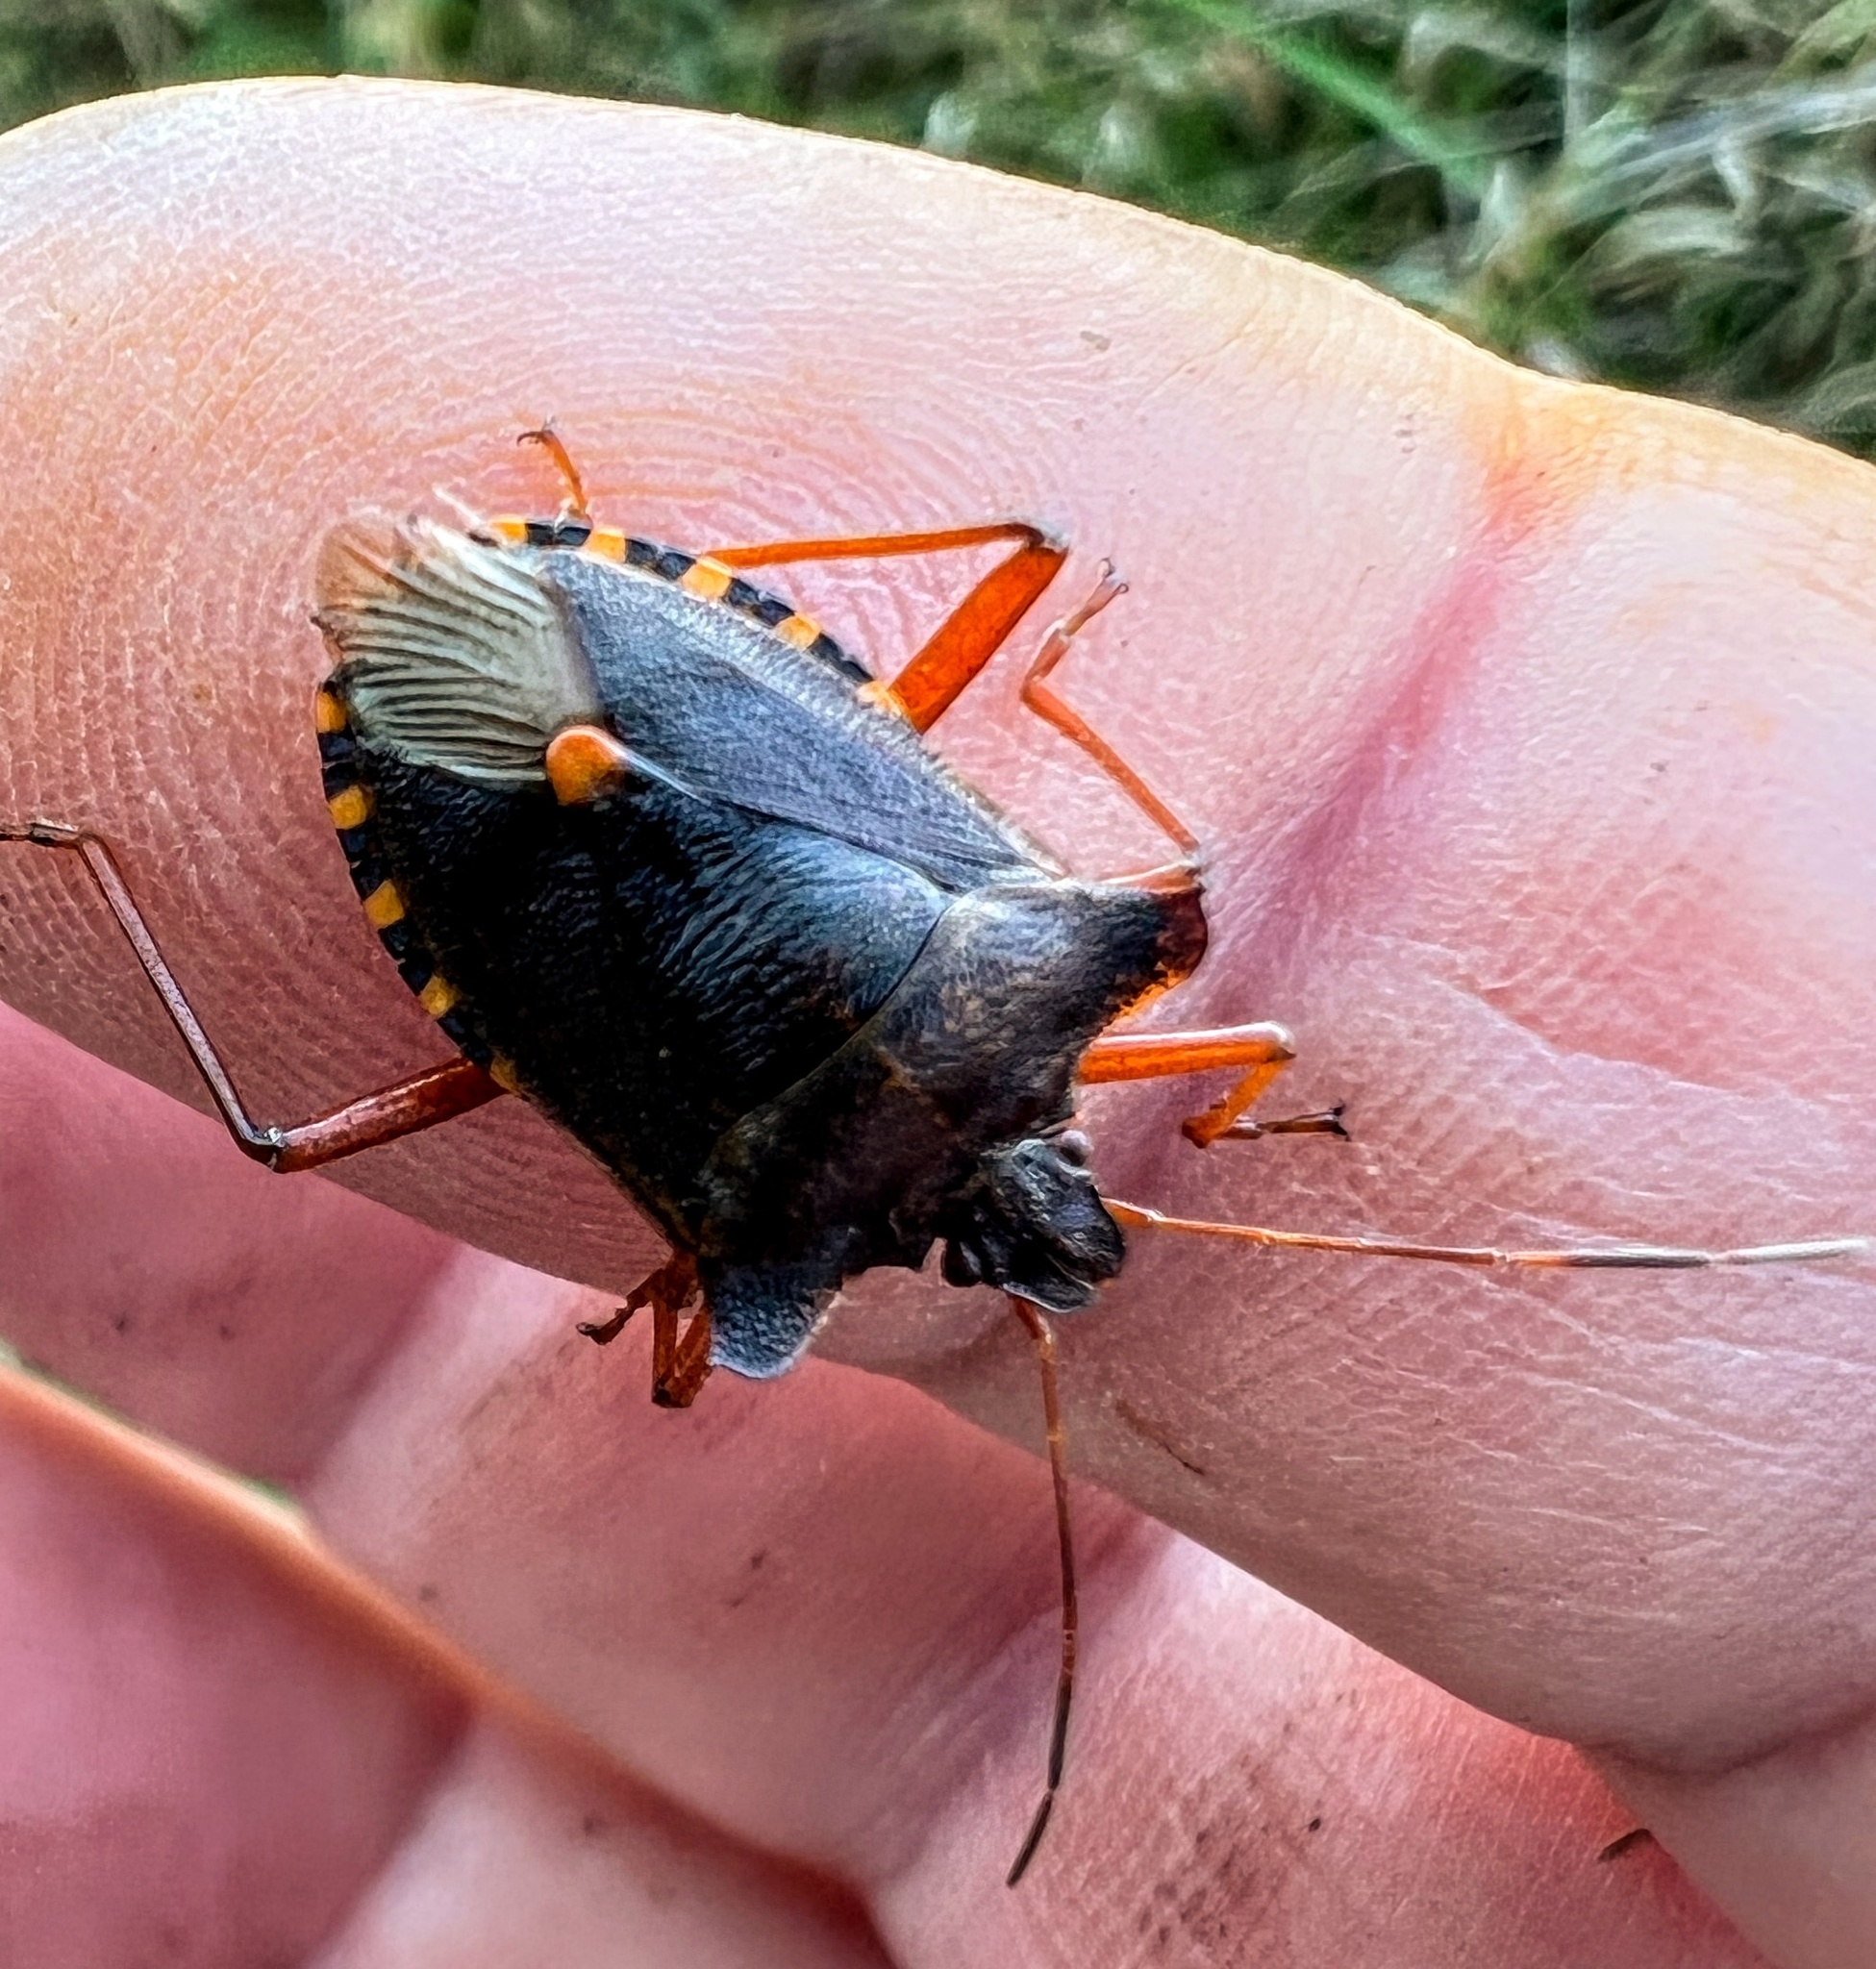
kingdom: Animalia
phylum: Arthropoda
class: Insecta
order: Hemiptera
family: Pentatomidae
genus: Pentatoma
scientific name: Pentatoma rufipes
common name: Forest bug
